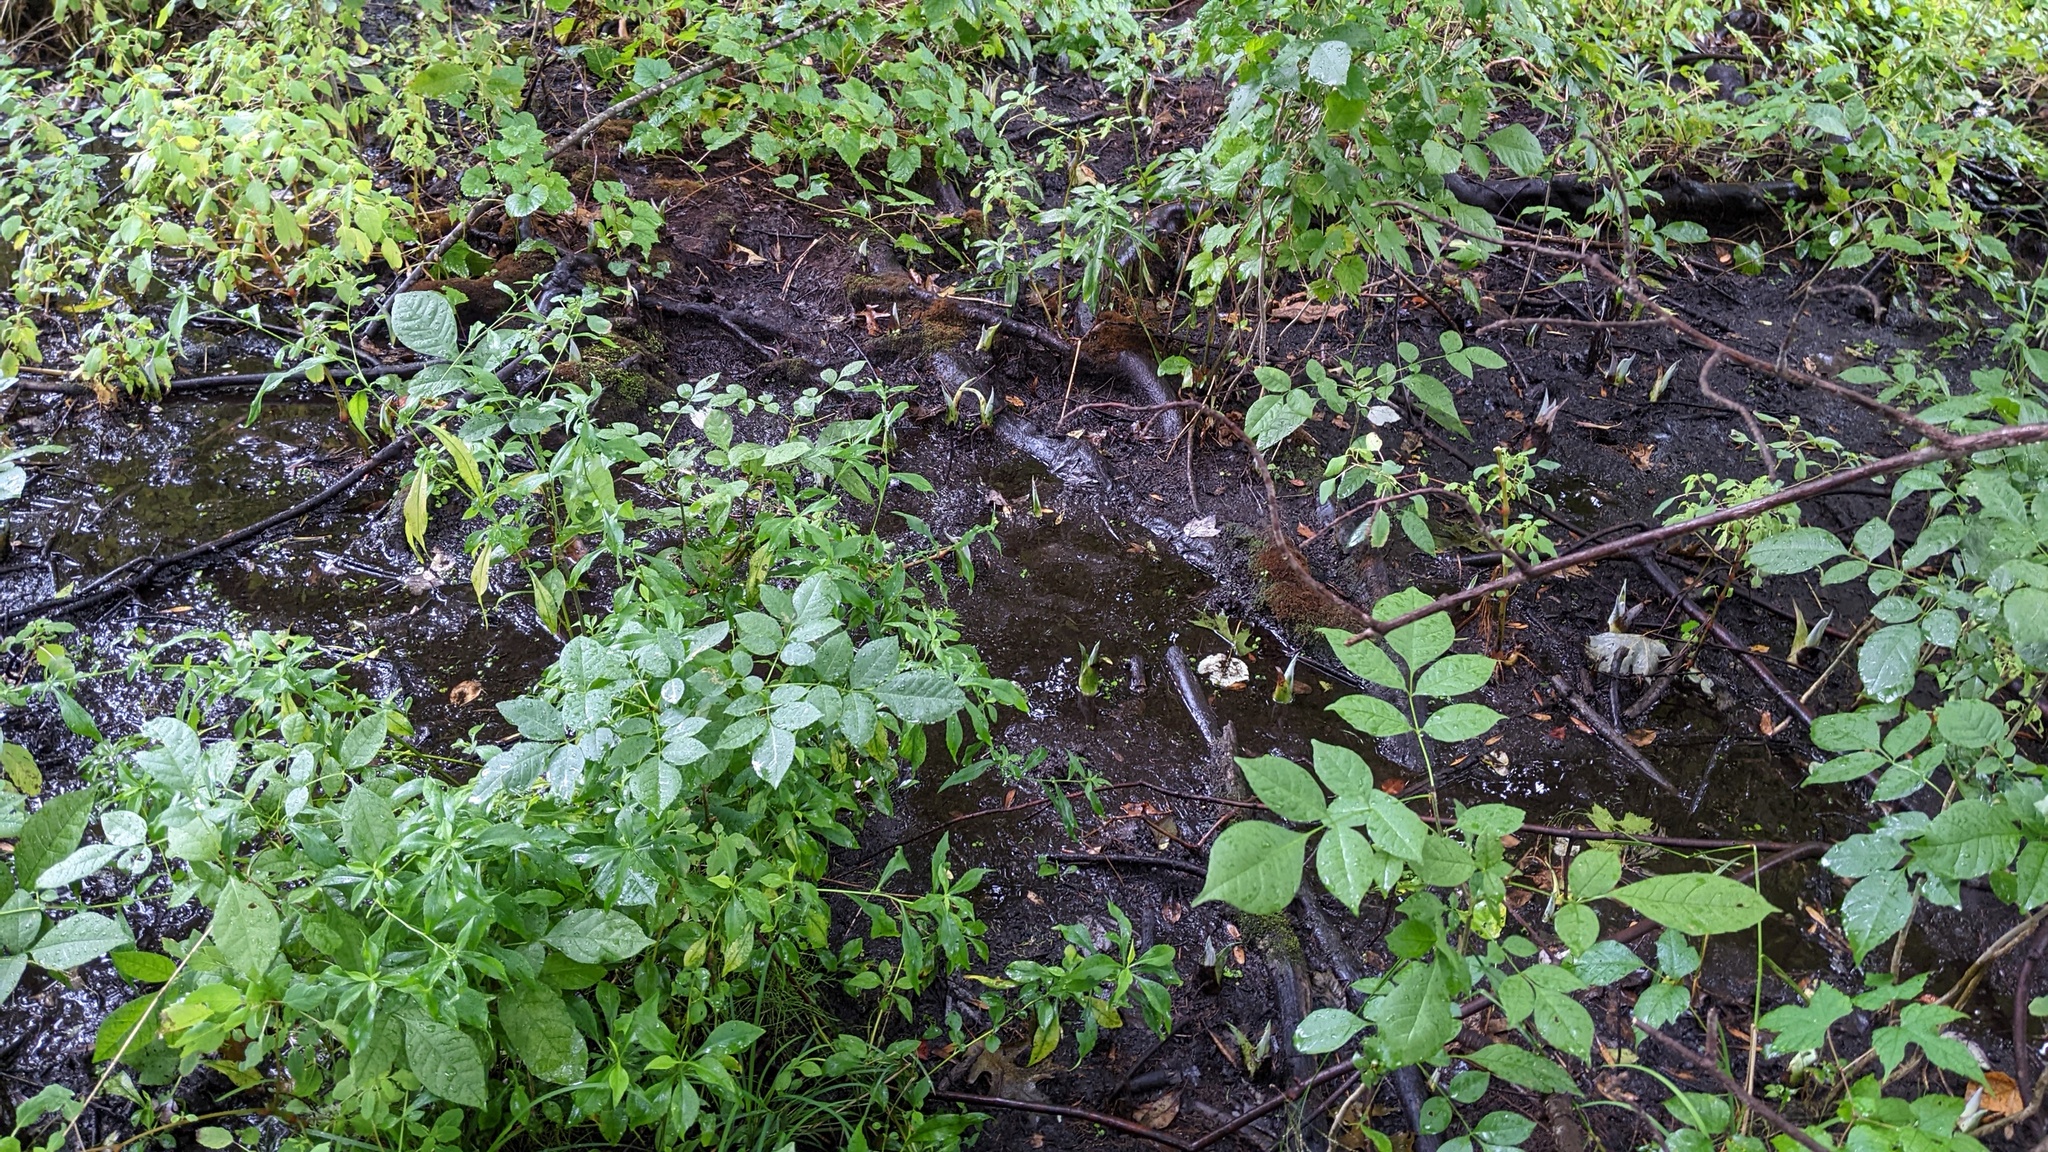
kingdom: Plantae
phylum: Tracheophyta
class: Liliopsida
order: Alismatales
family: Araceae
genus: Symplocarpus
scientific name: Symplocarpus foetidus
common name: Eastern skunk cabbage
